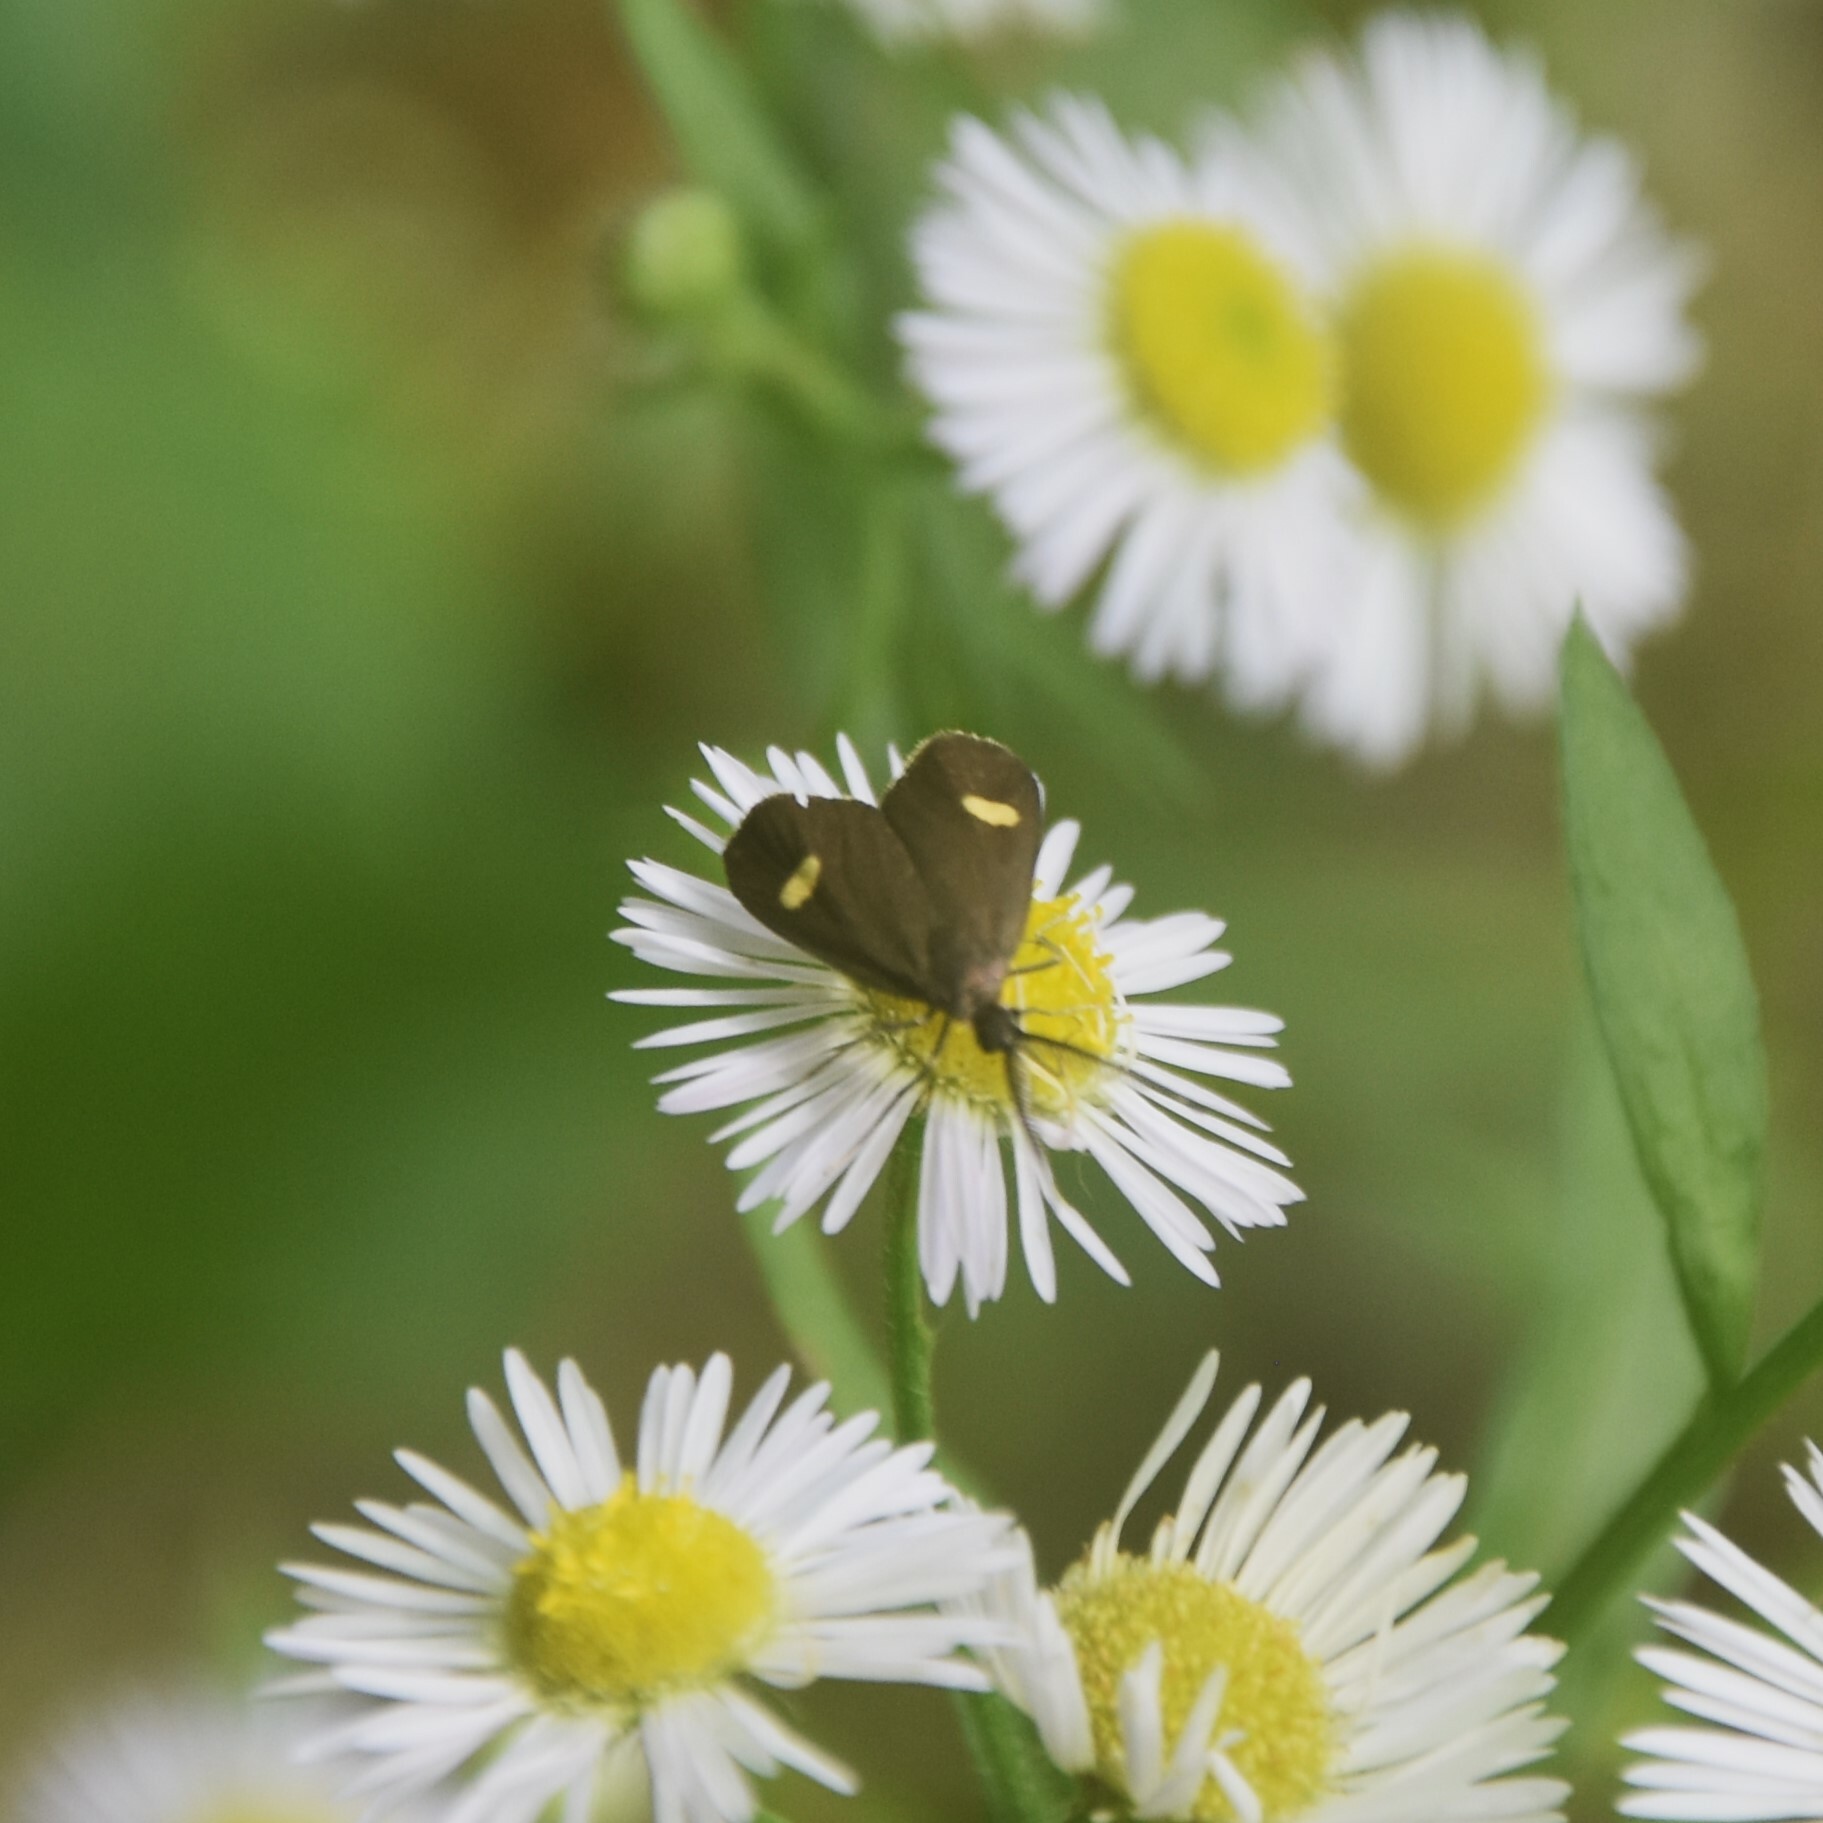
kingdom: Animalia
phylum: Arthropoda
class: Insecta
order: Lepidoptera
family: Zygaenidae
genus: Artona
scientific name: Artona quadrimaculata
